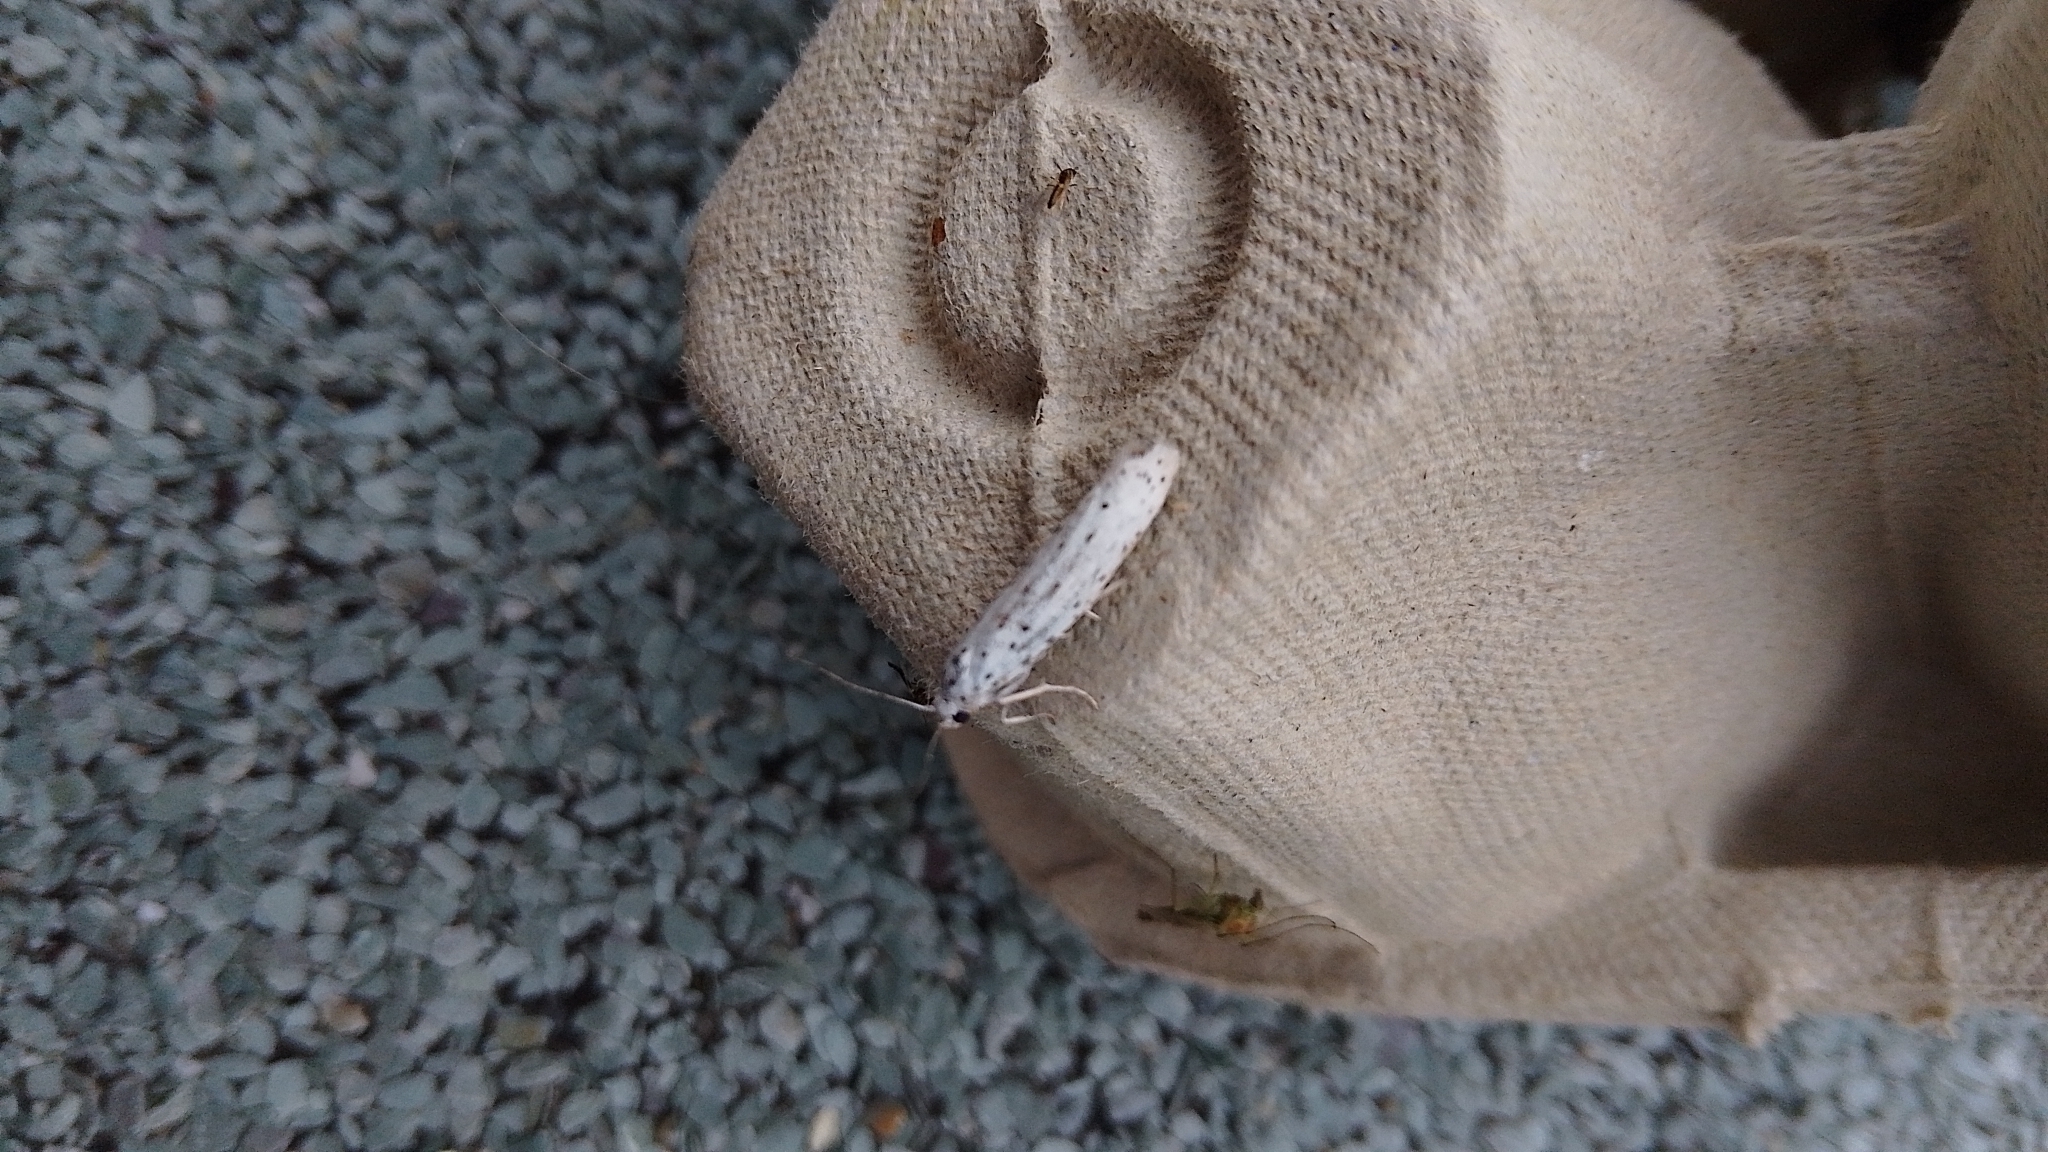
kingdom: Animalia
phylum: Arthropoda
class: Insecta
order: Lepidoptera
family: Yponomeutidae
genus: Yponomeuta
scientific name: Yponomeuta
